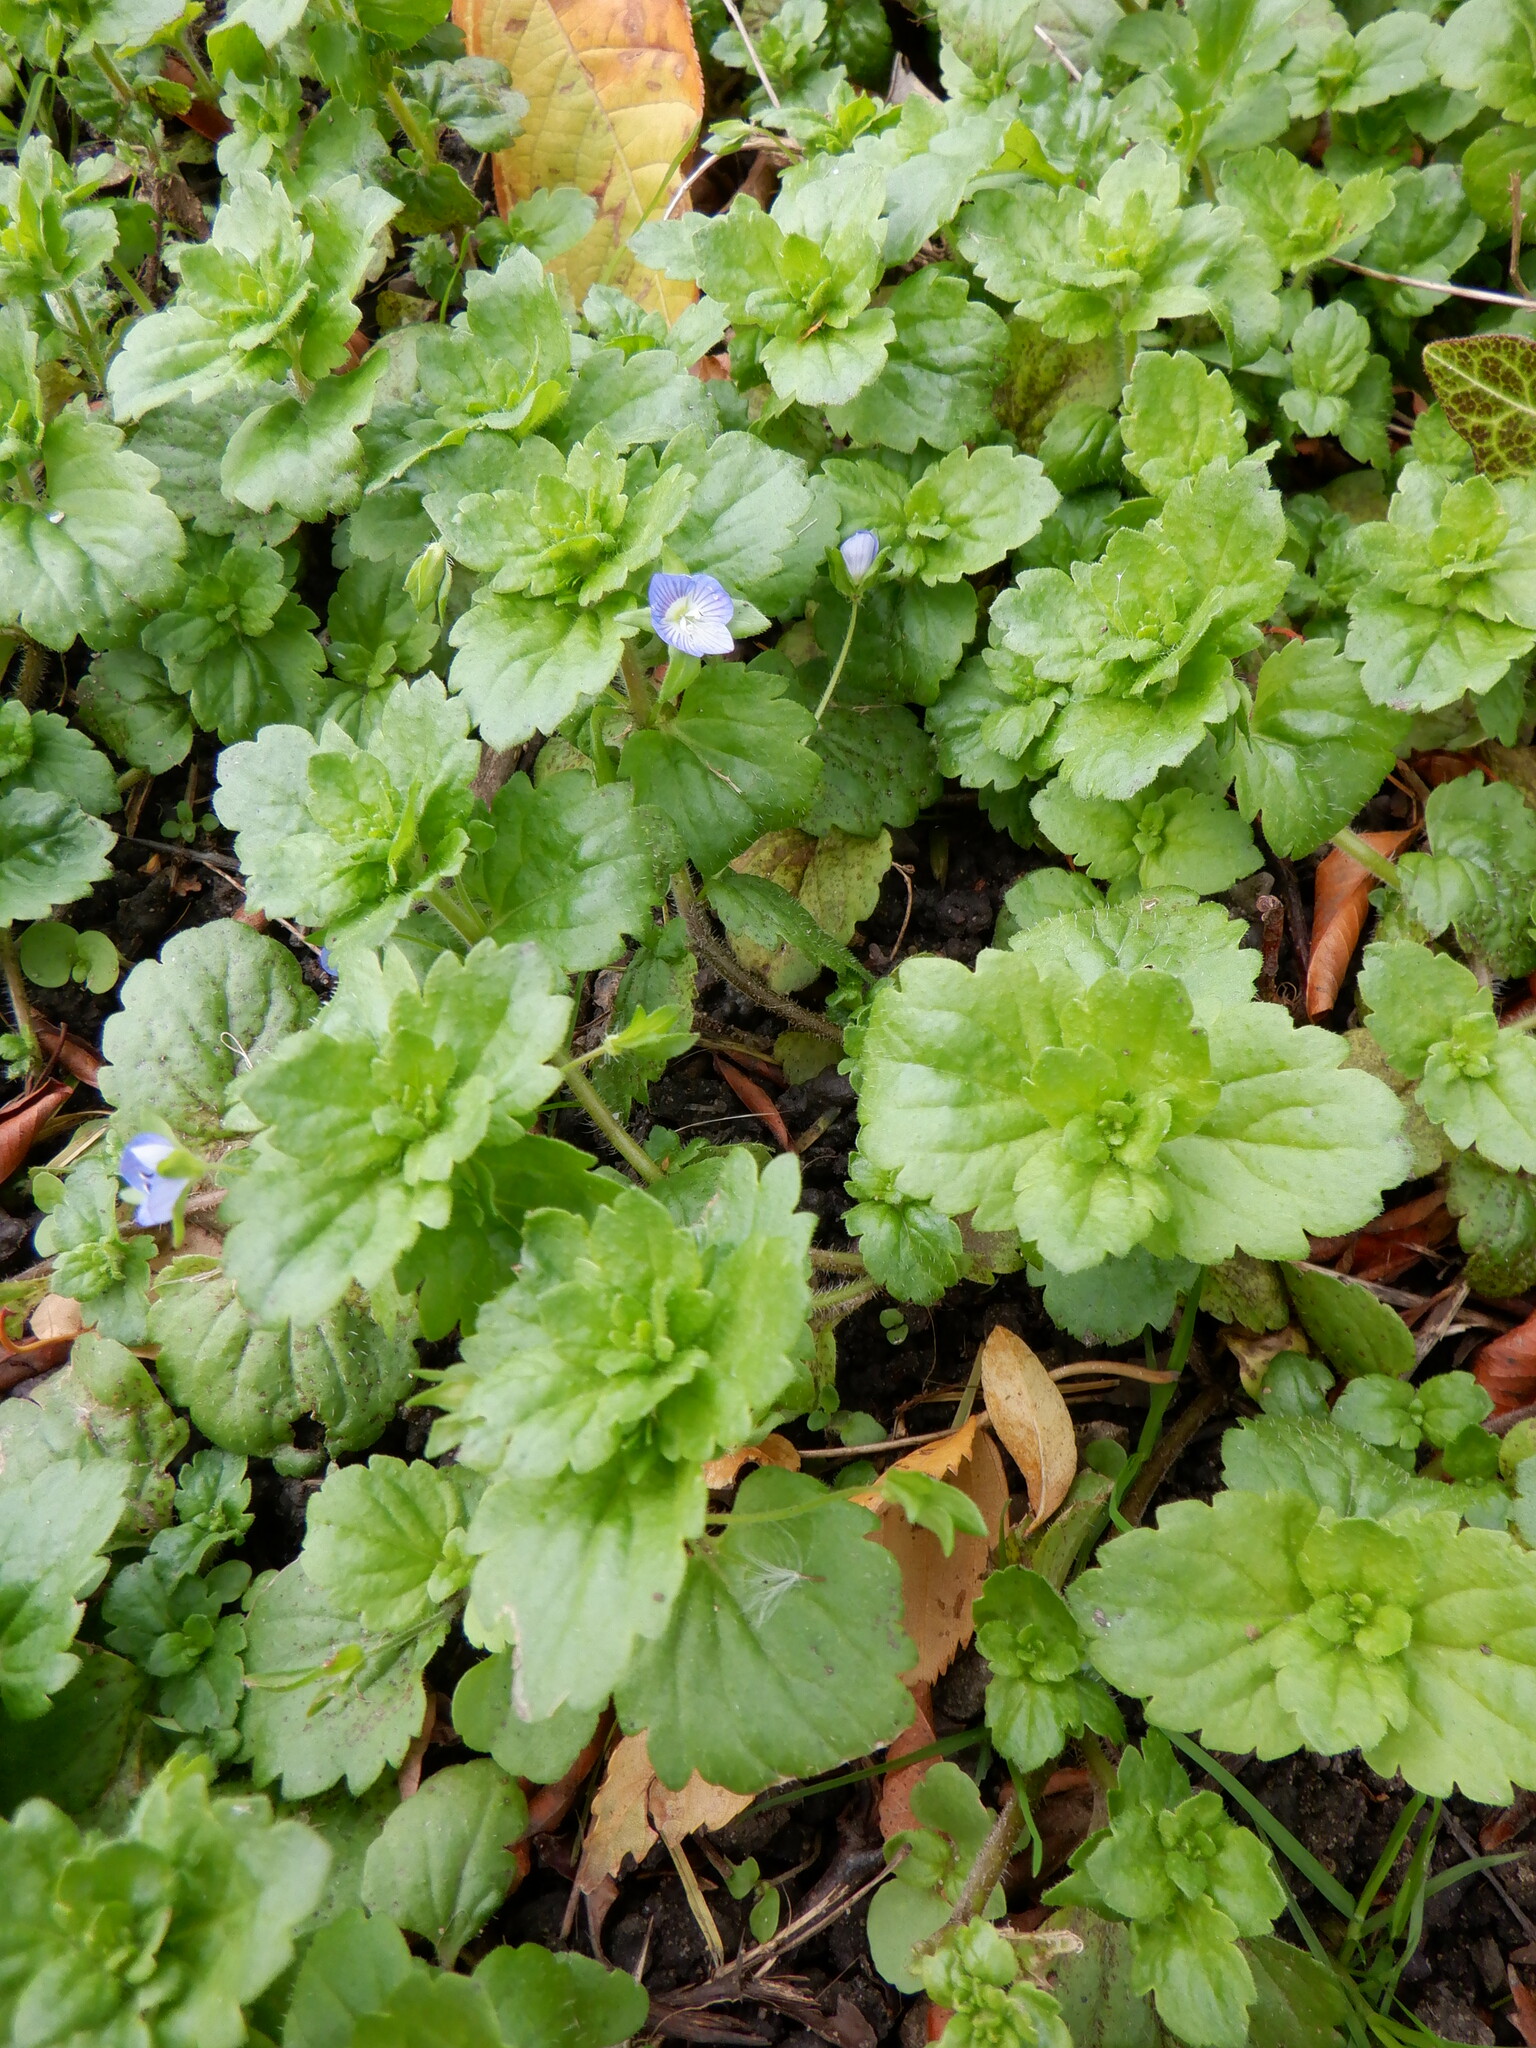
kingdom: Plantae
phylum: Tracheophyta
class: Magnoliopsida
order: Lamiales
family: Plantaginaceae
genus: Veronica
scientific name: Veronica persica
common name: Common field-speedwell
